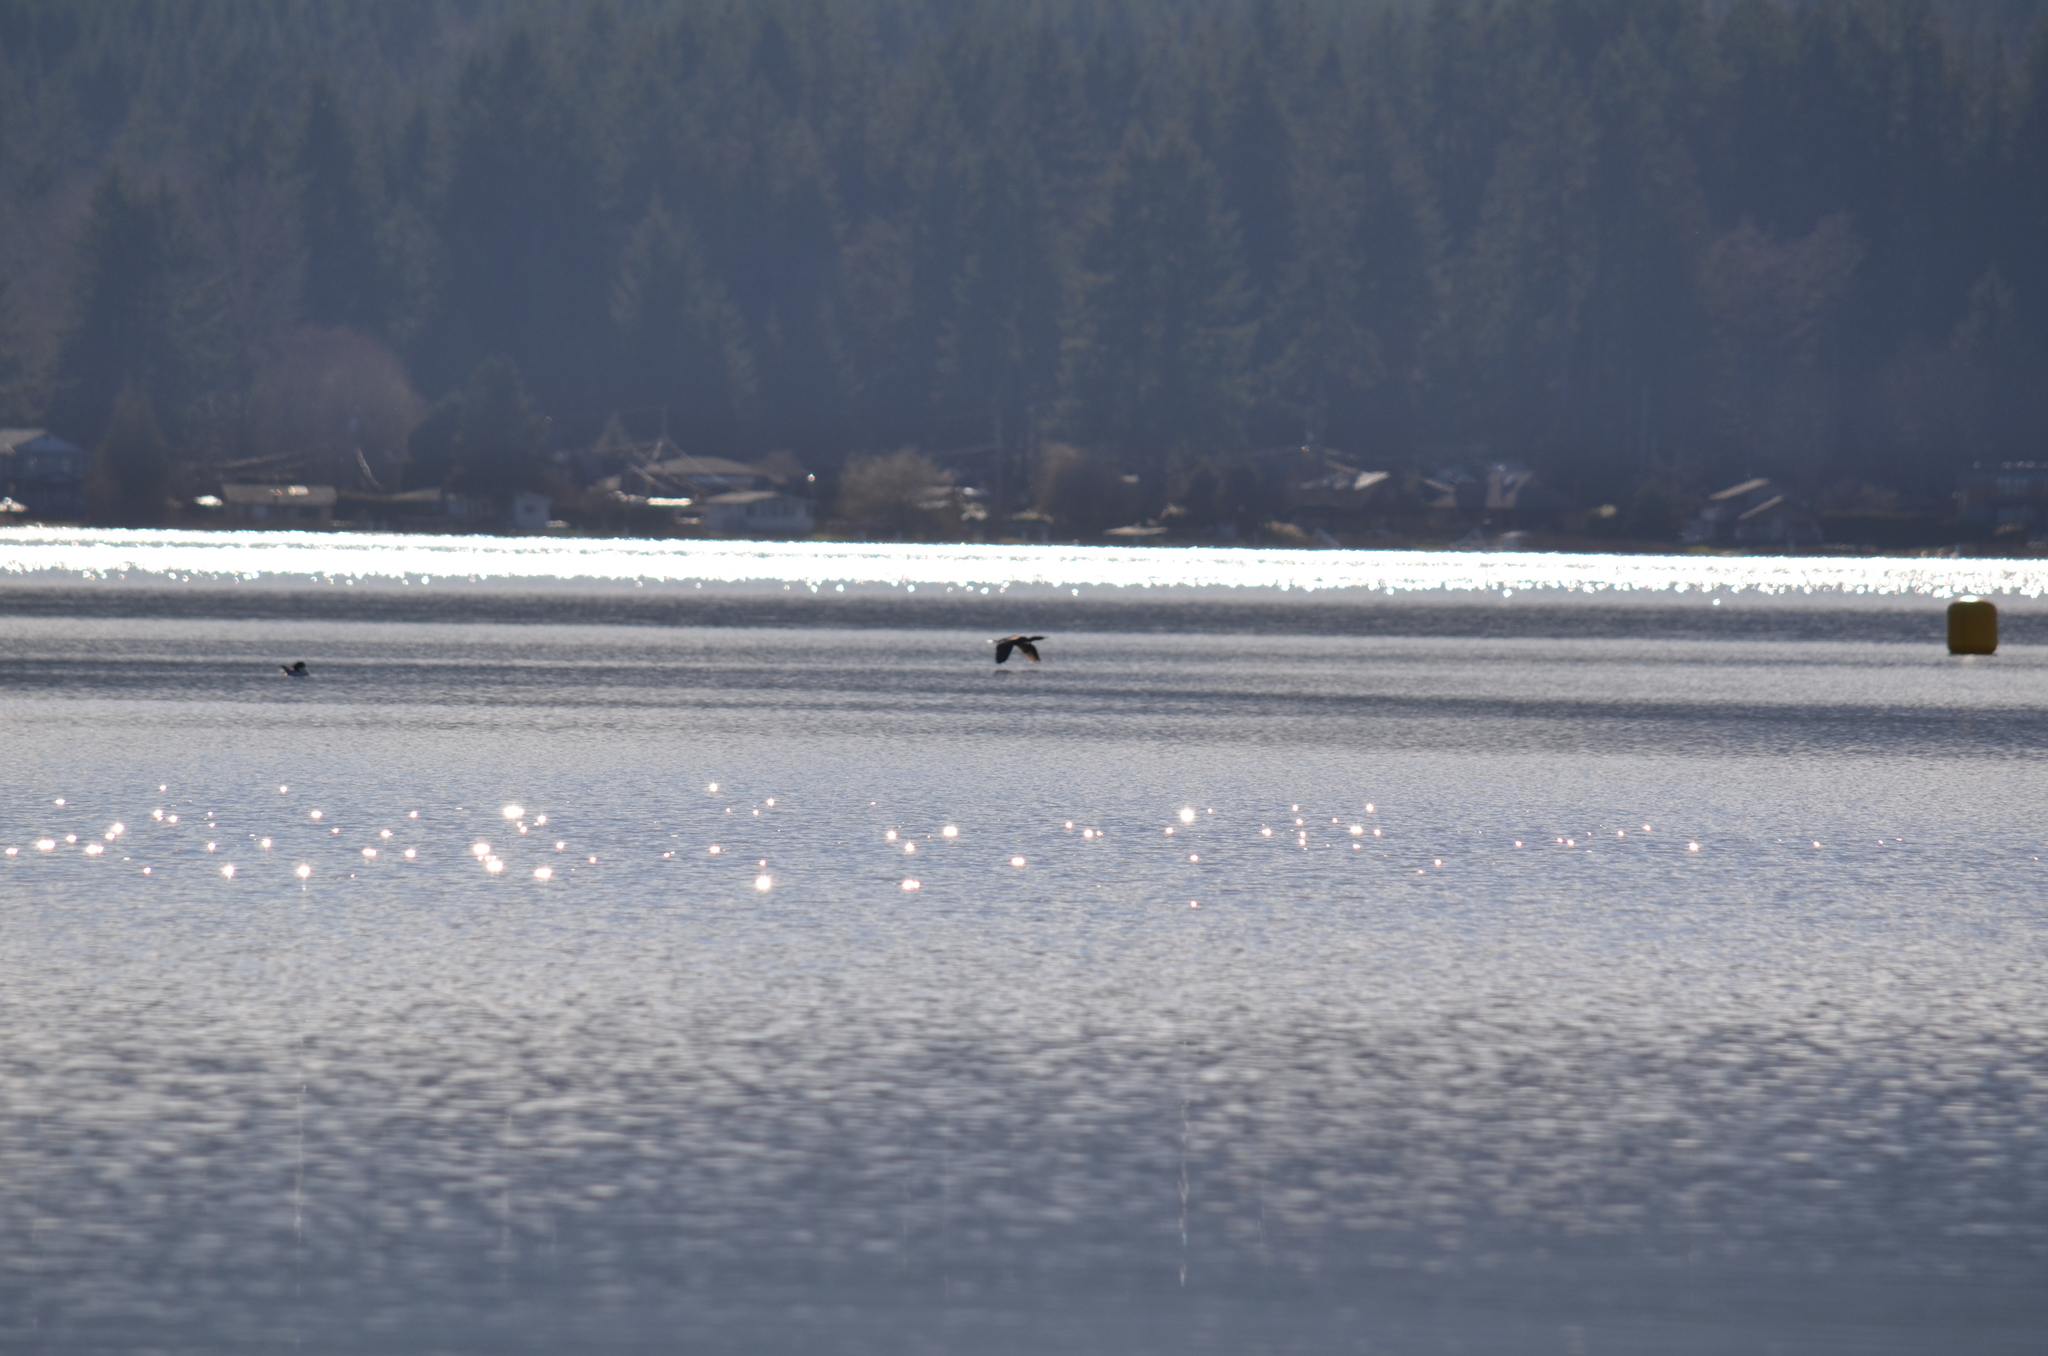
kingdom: Animalia
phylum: Chordata
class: Aves
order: Suliformes
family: Phalacrocoracidae
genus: Phalacrocorax
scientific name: Phalacrocorax auritus
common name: Double-crested cormorant
